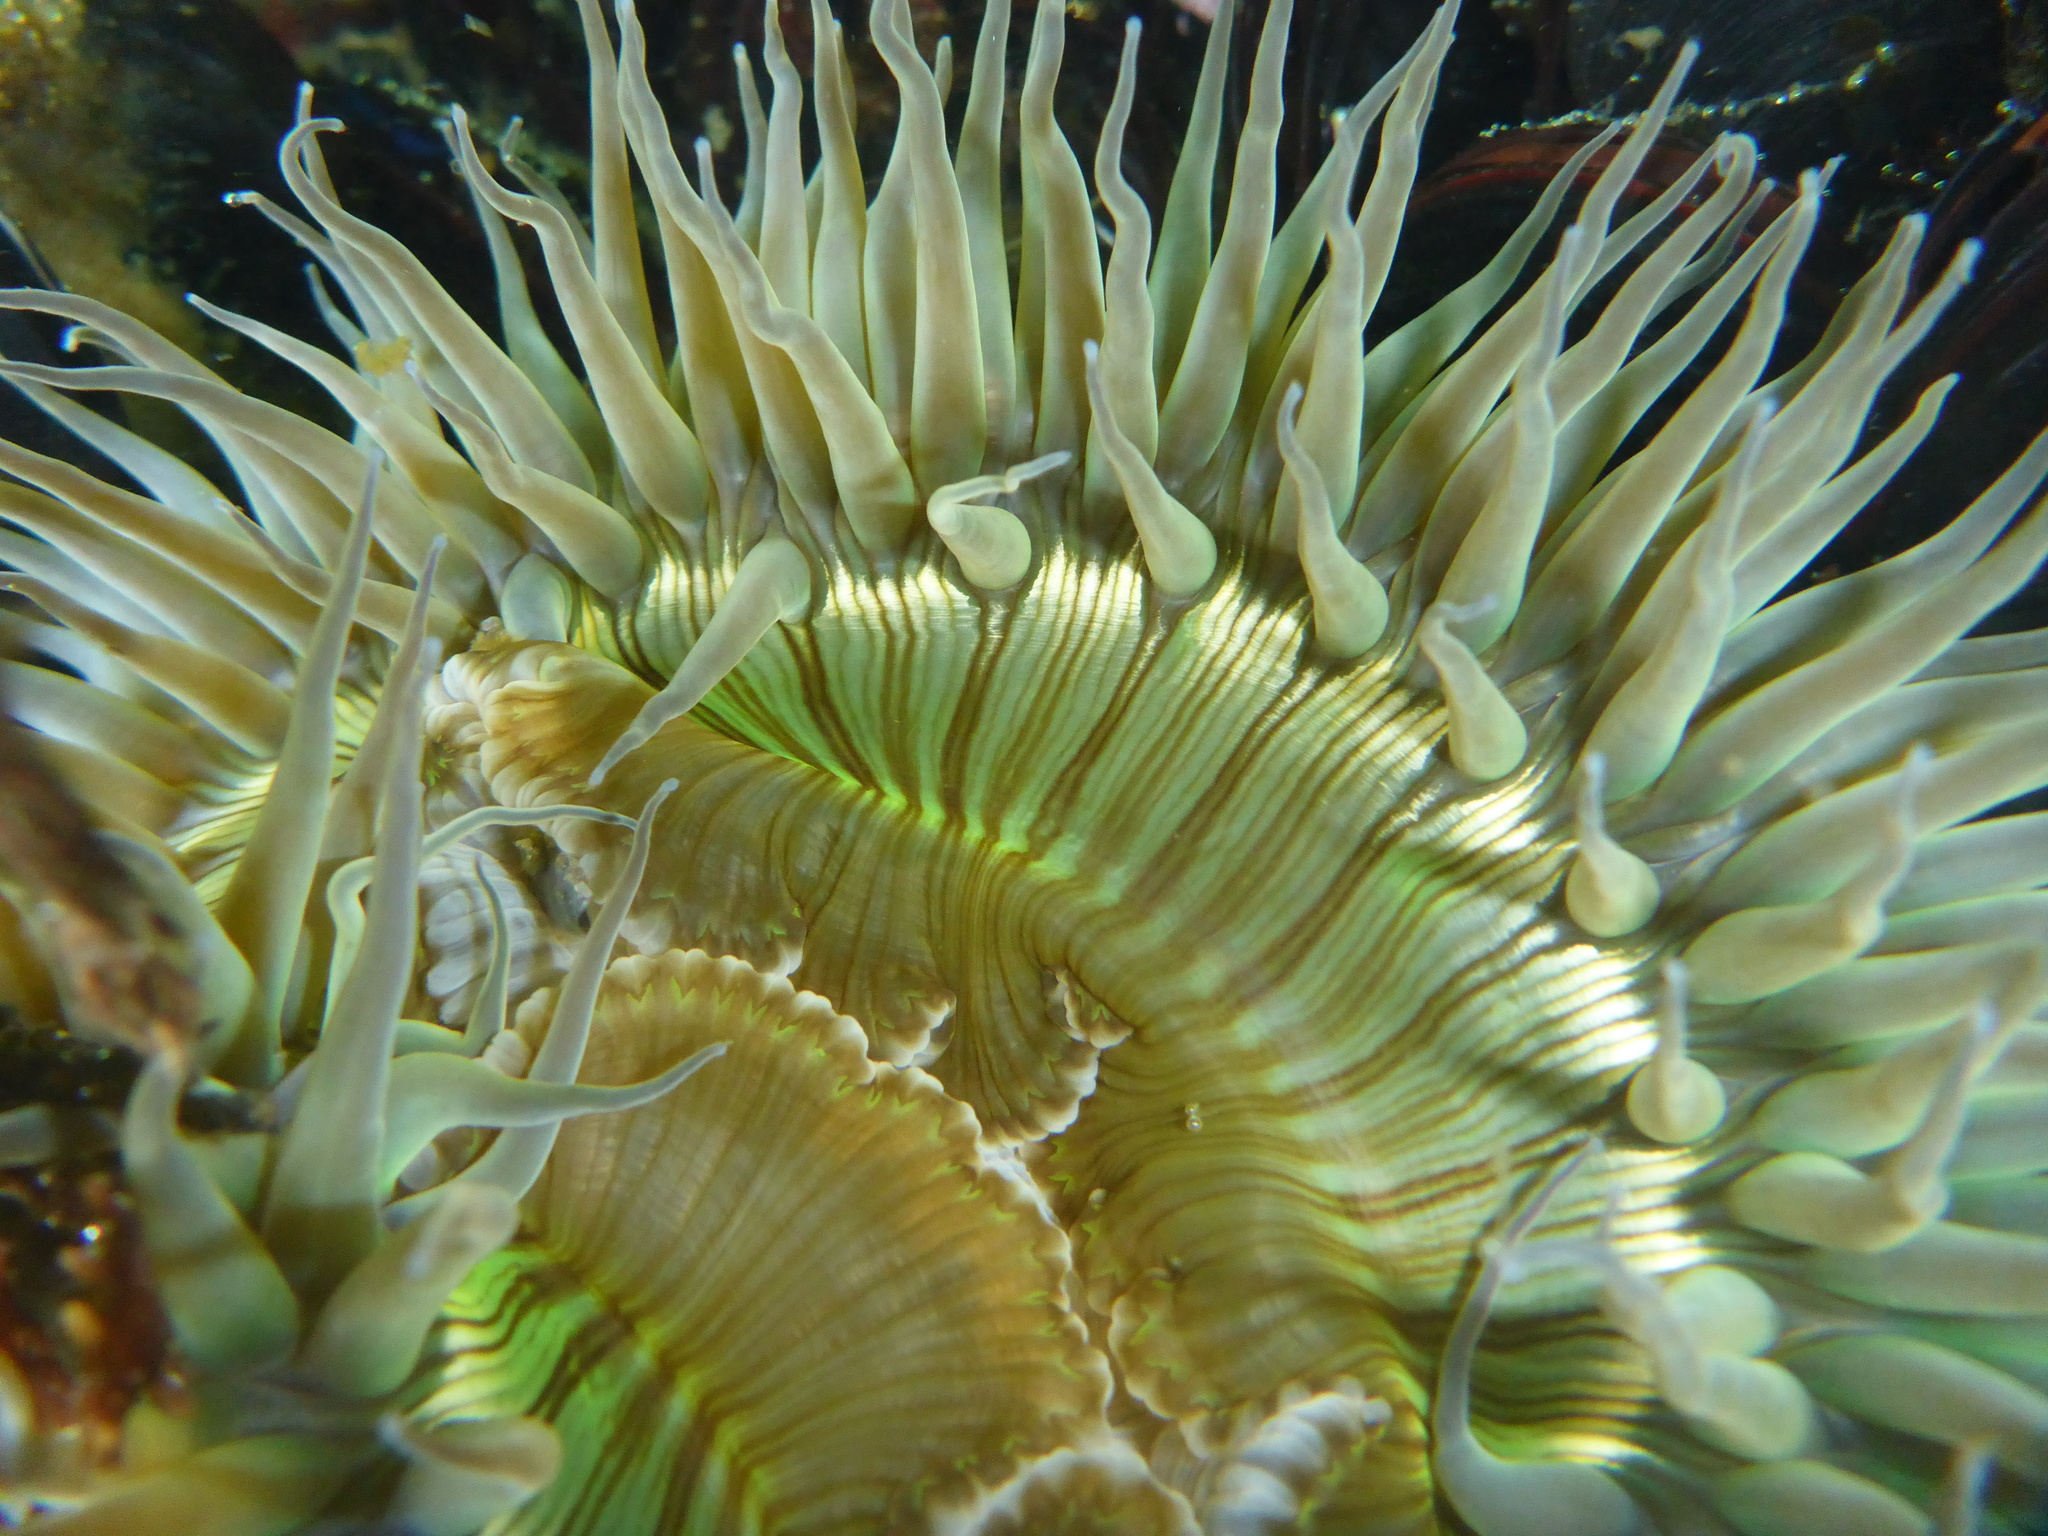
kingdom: Animalia
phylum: Cnidaria
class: Anthozoa
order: Actiniaria
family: Actiniidae
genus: Anthopleura
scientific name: Anthopleura sola
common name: Sun anemone
